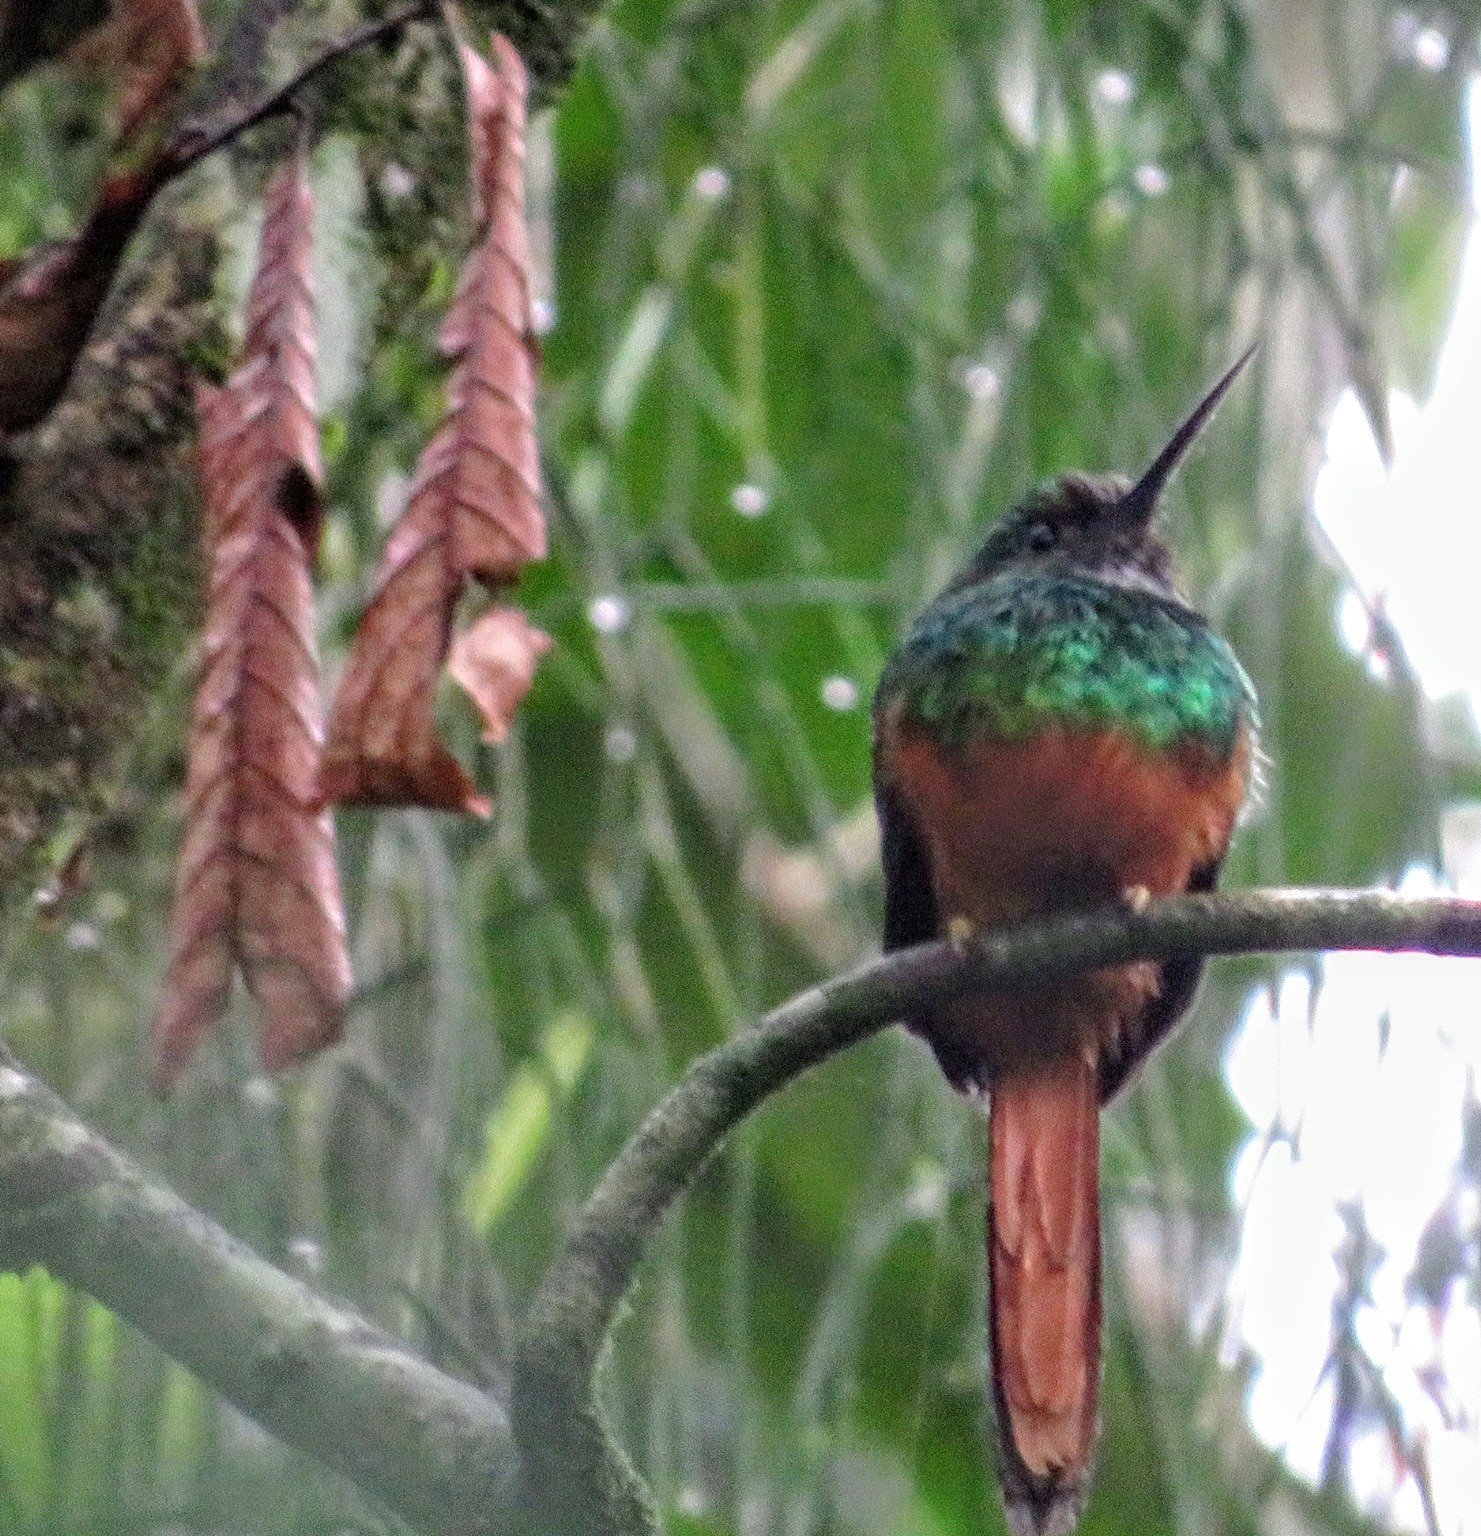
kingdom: Animalia
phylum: Chordata
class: Aves
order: Piciformes
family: Galbulidae
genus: Galbula
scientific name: Galbula ruficauda
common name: Rufous-tailed jacamar
